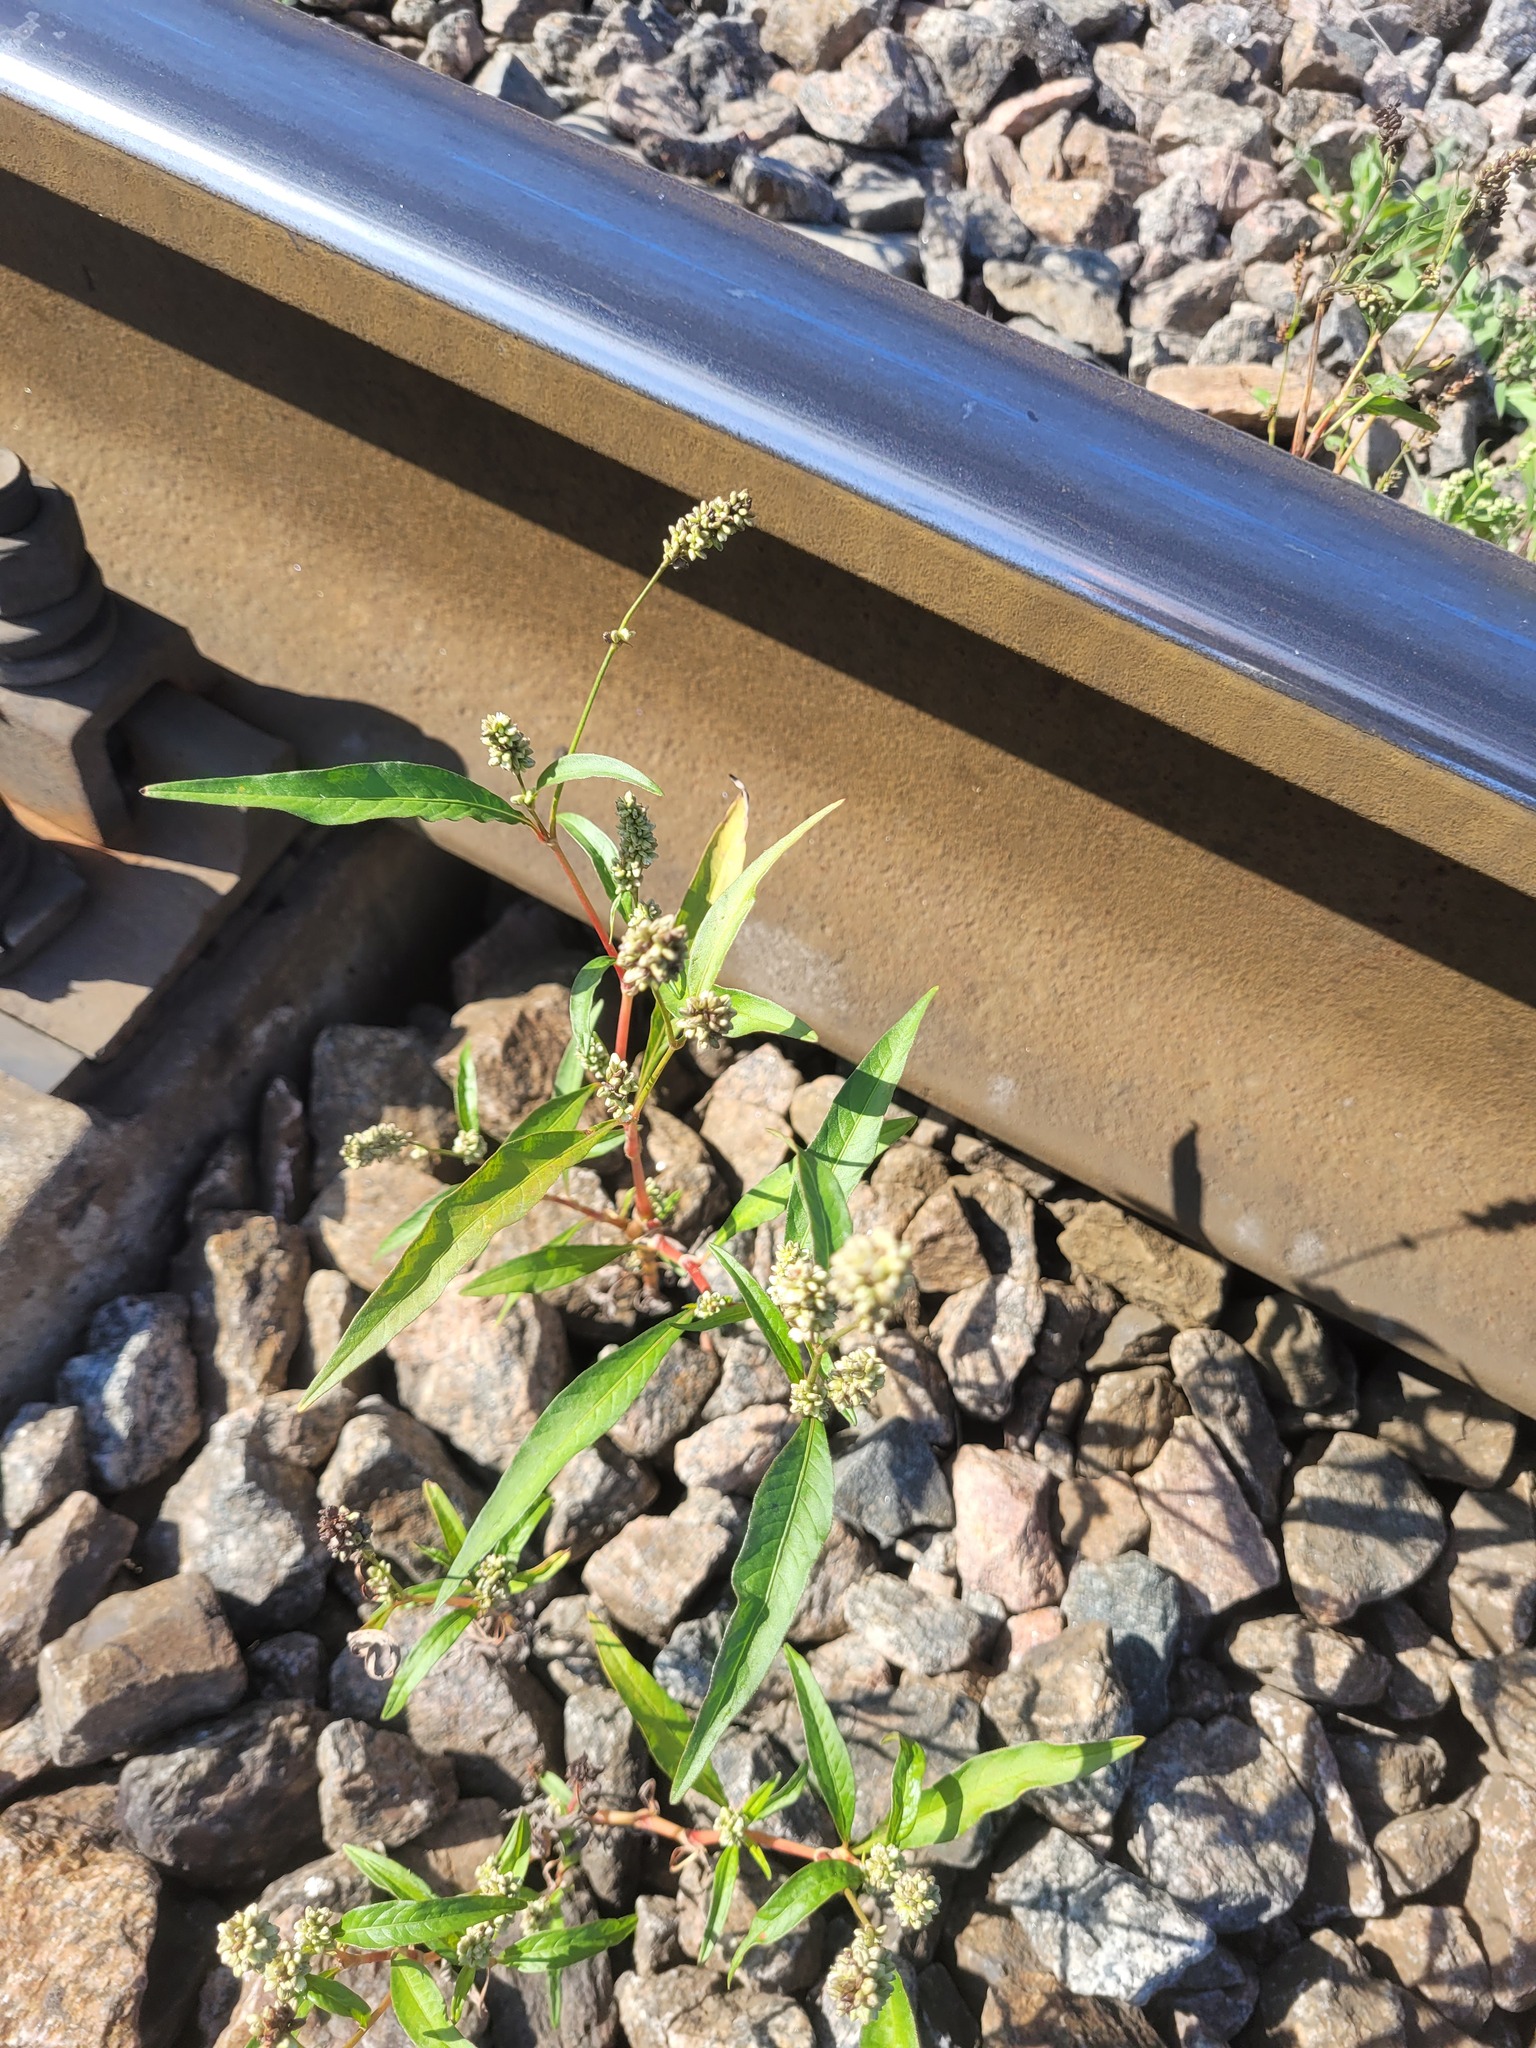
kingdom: Plantae
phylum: Tracheophyta
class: Magnoliopsida
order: Caryophyllales
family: Polygonaceae
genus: Persicaria
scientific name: Persicaria lapathifolia
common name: Curlytop knotweed
